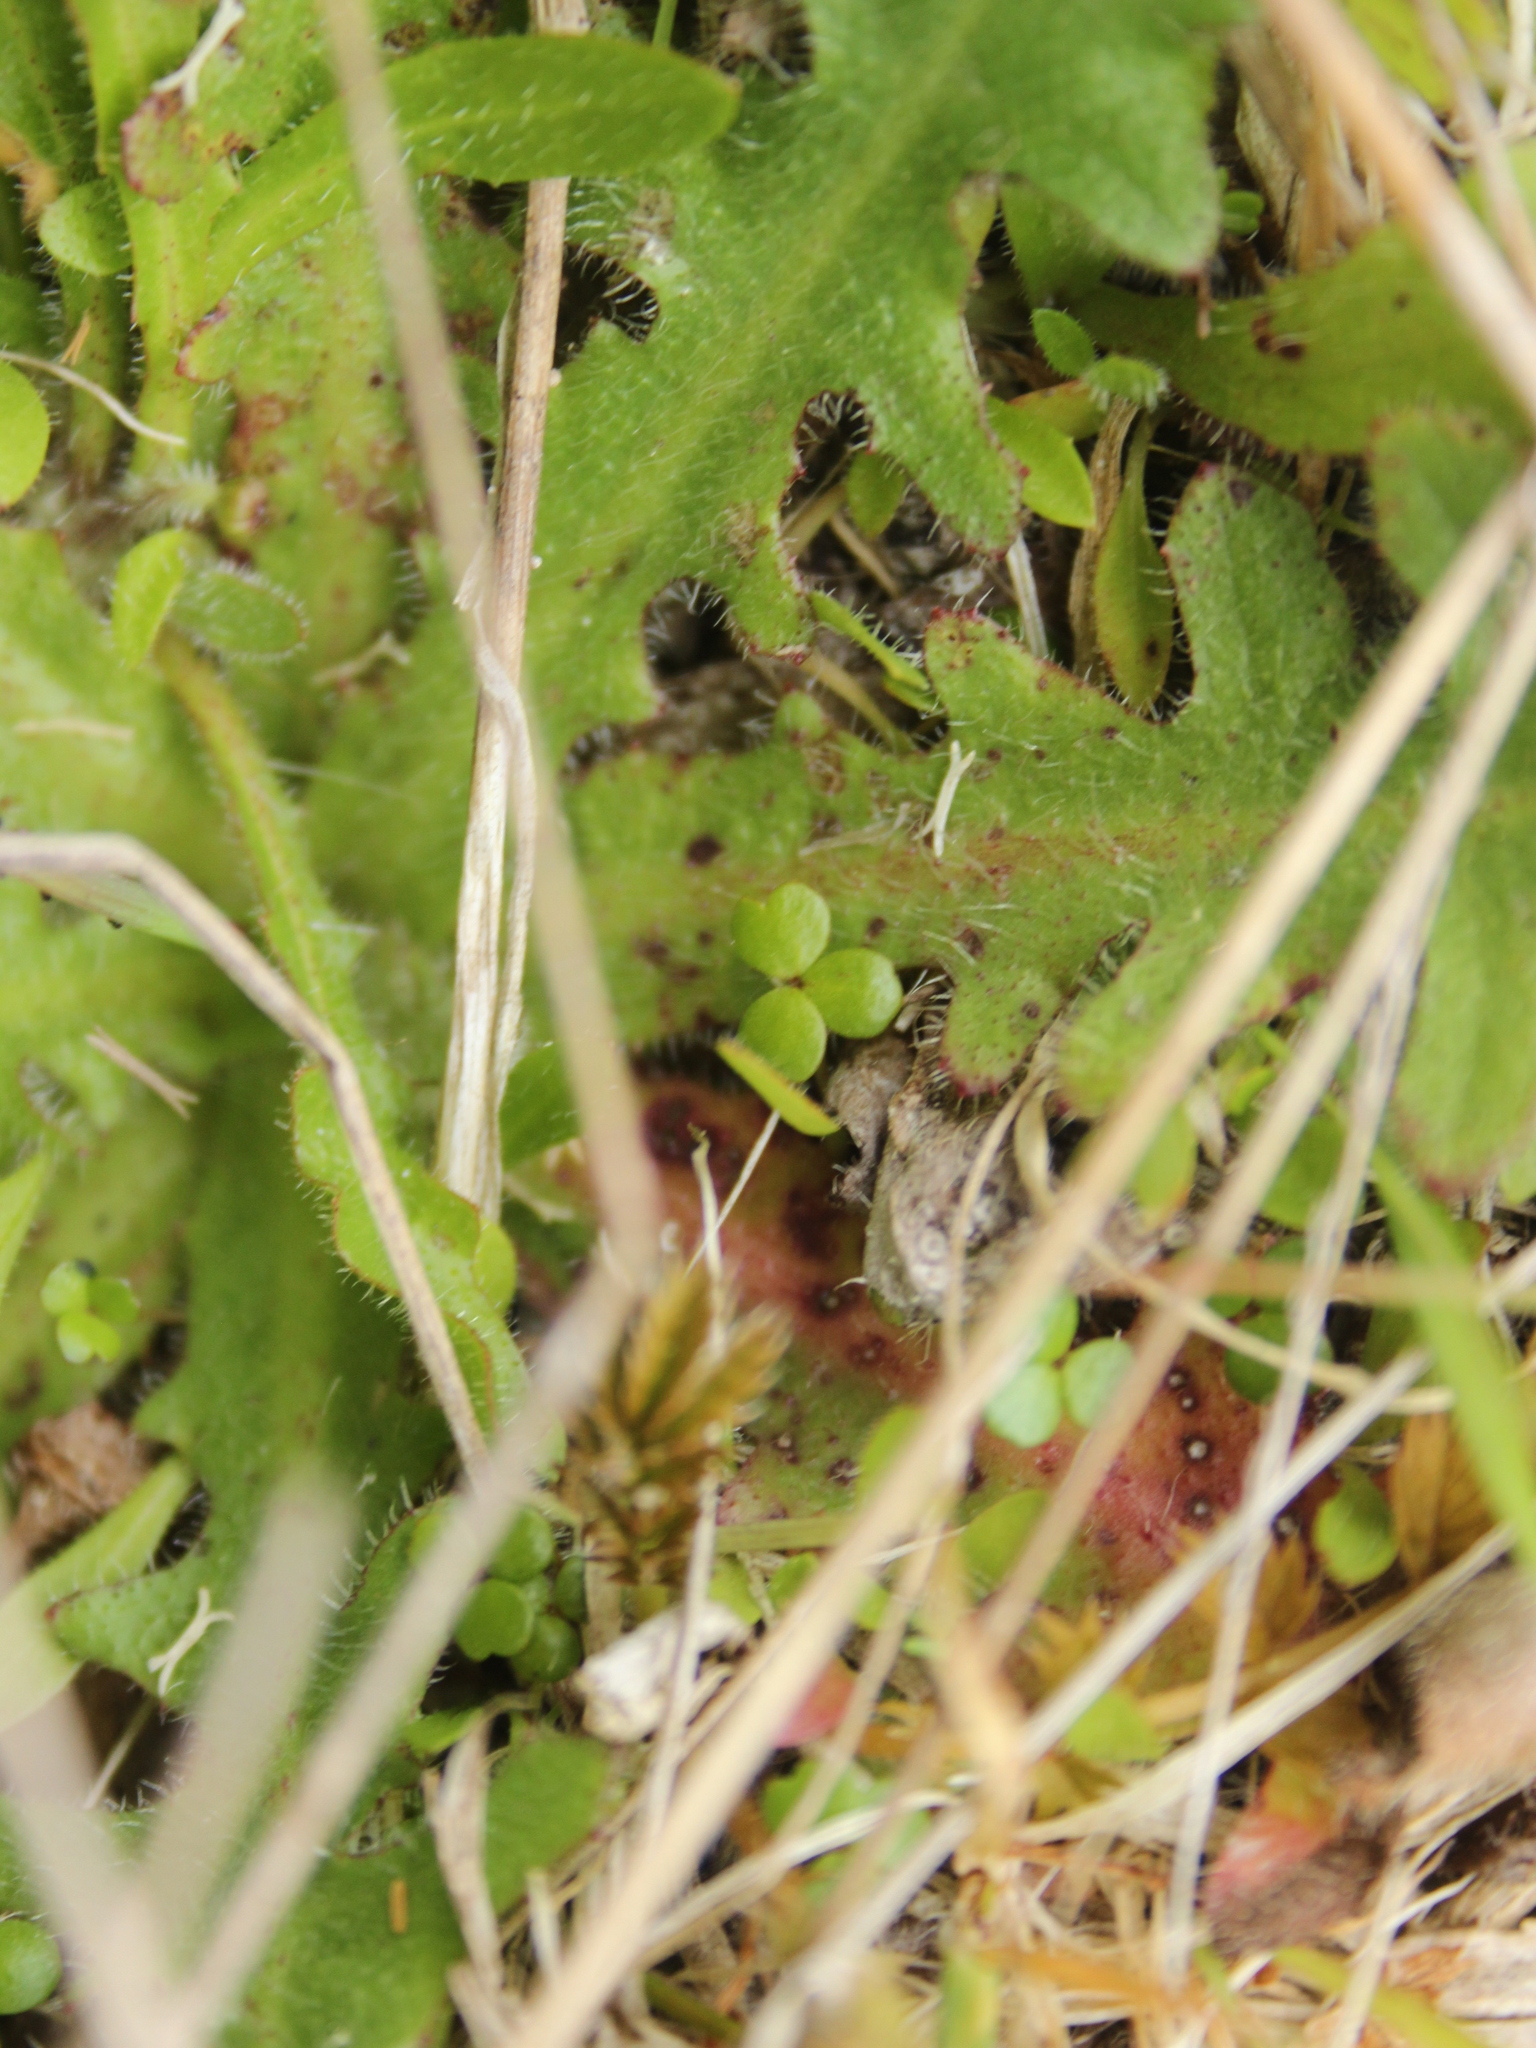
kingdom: Plantae
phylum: Tracheophyta
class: Magnoliopsida
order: Apiales
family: Araliaceae
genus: Hydrocotyle
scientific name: Hydrocotyle hydrophila
